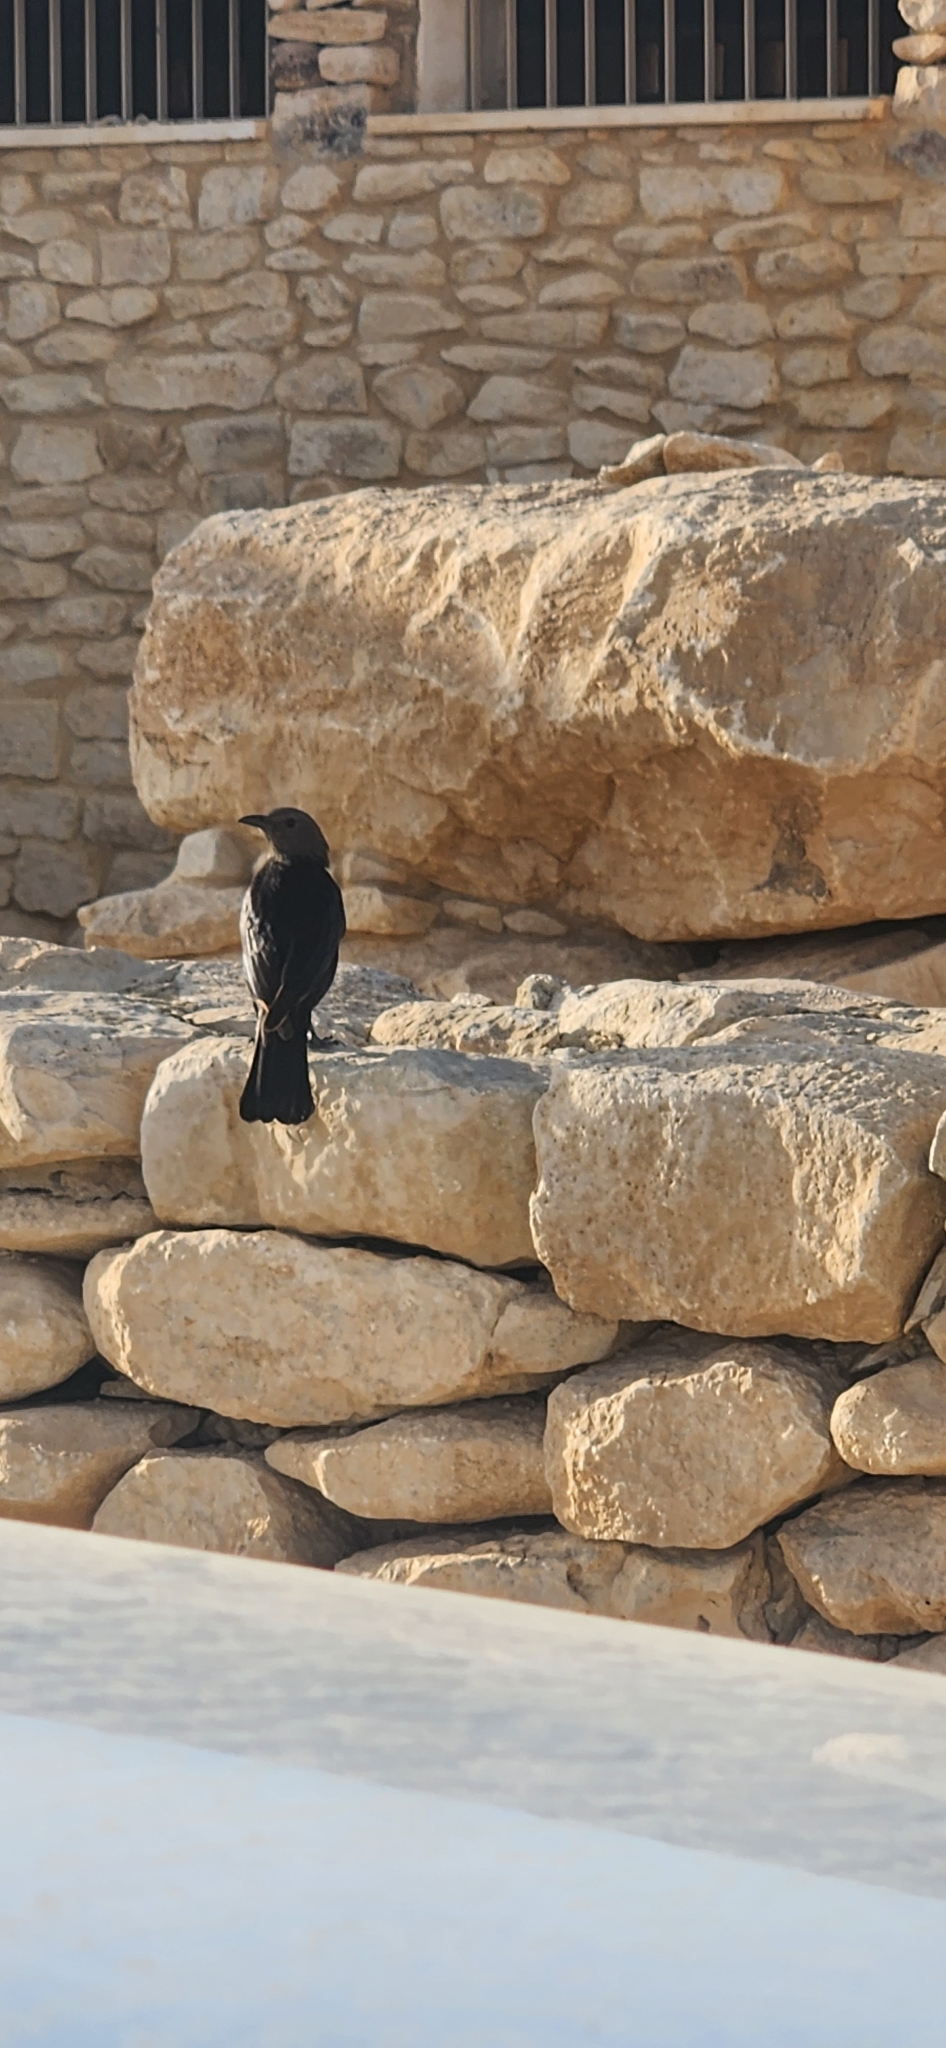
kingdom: Animalia
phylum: Chordata
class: Aves
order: Passeriformes
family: Sturnidae
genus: Onychognathus
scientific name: Onychognathus tristramii
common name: Tristram's starling
